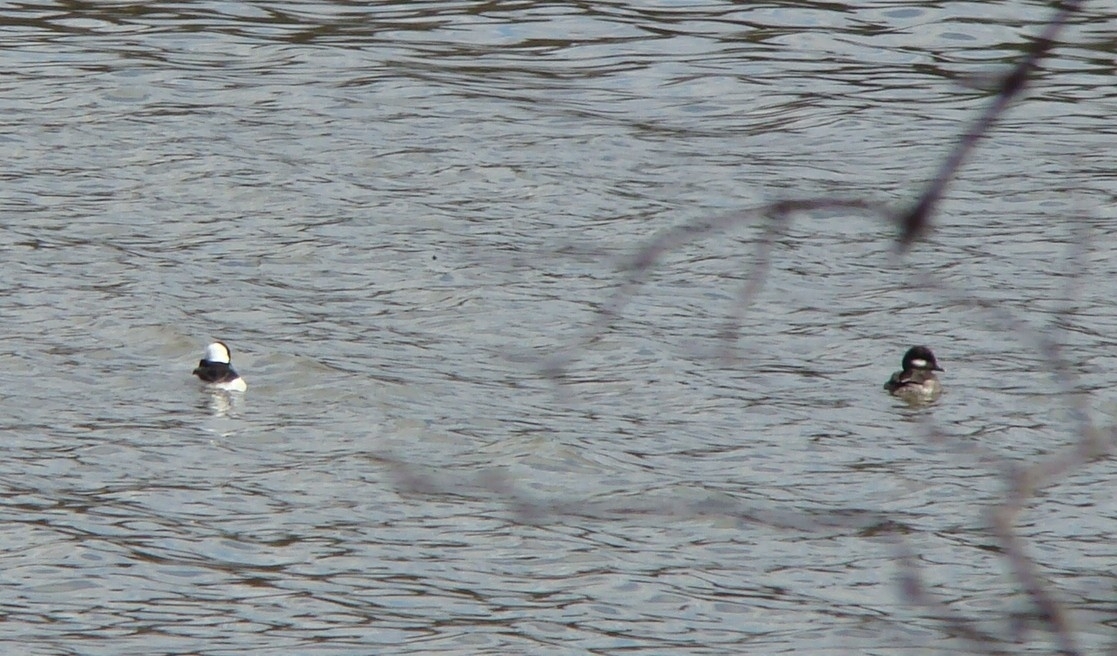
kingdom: Animalia
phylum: Chordata
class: Aves
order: Anseriformes
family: Anatidae
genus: Bucephala
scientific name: Bucephala albeola
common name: Bufflehead
